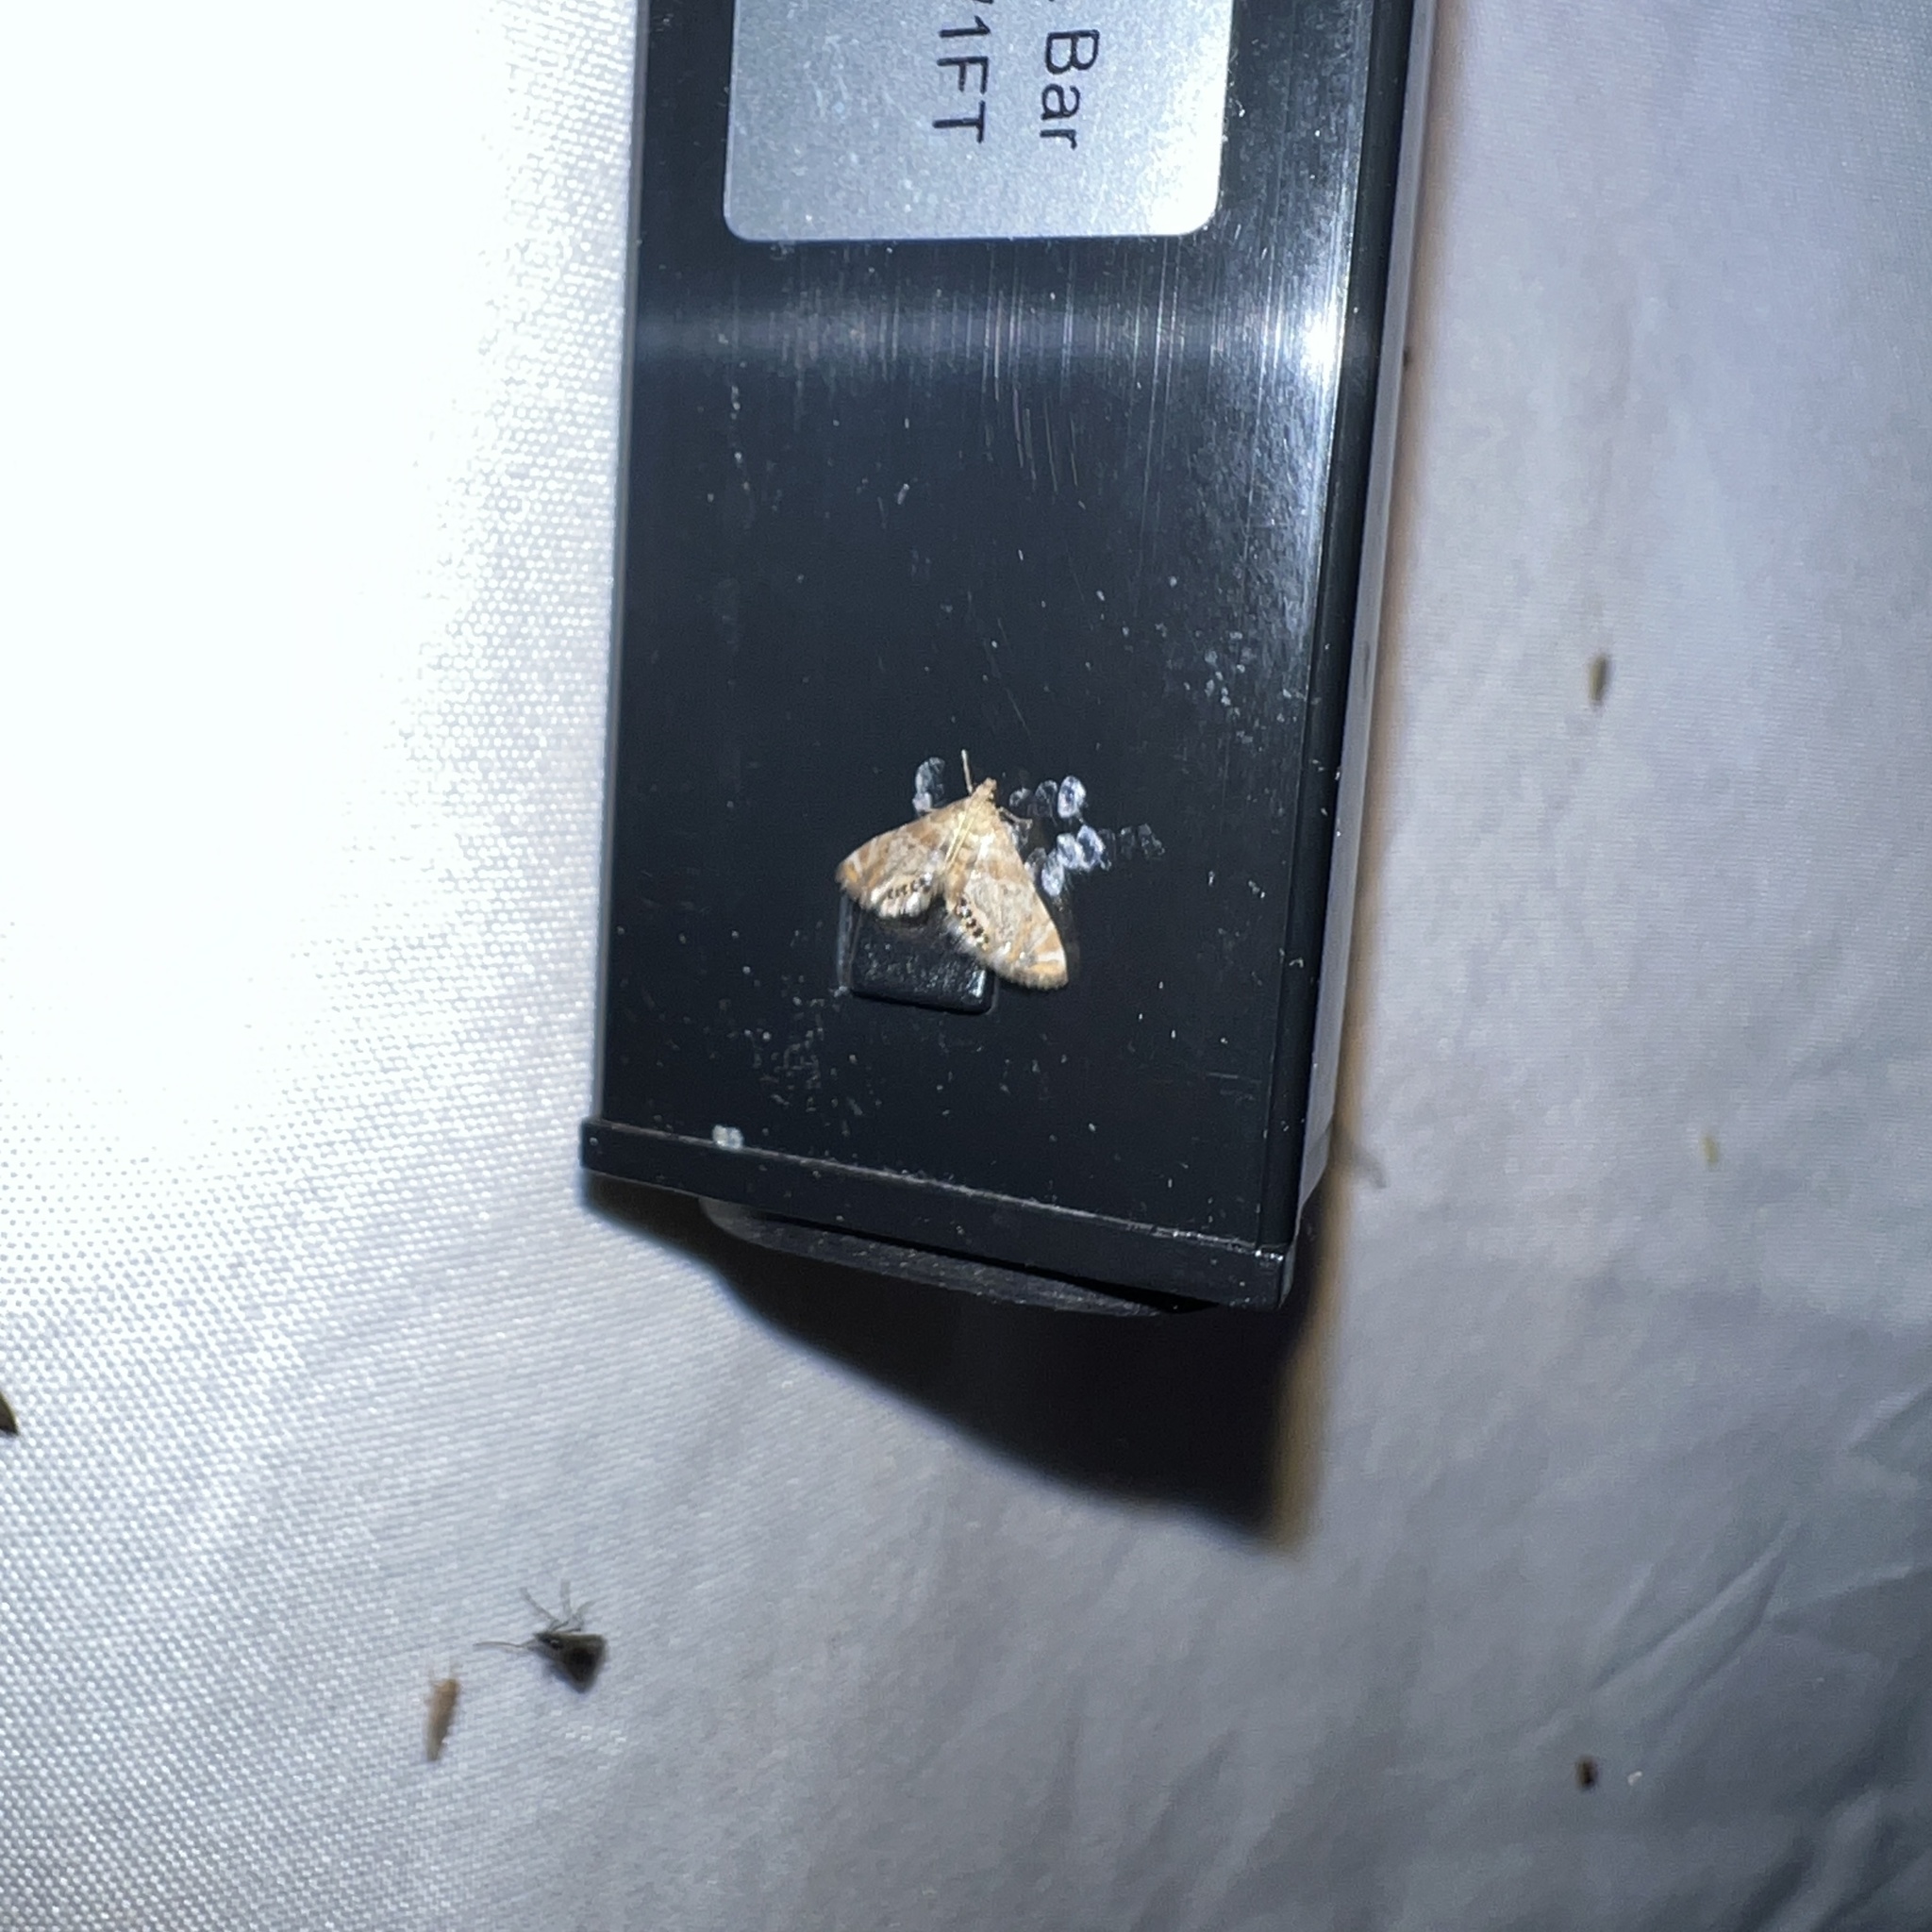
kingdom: Animalia
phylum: Arthropoda
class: Insecta
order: Lepidoptera
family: Crambidae
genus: Petrophila
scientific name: Petrophila fulicalis
